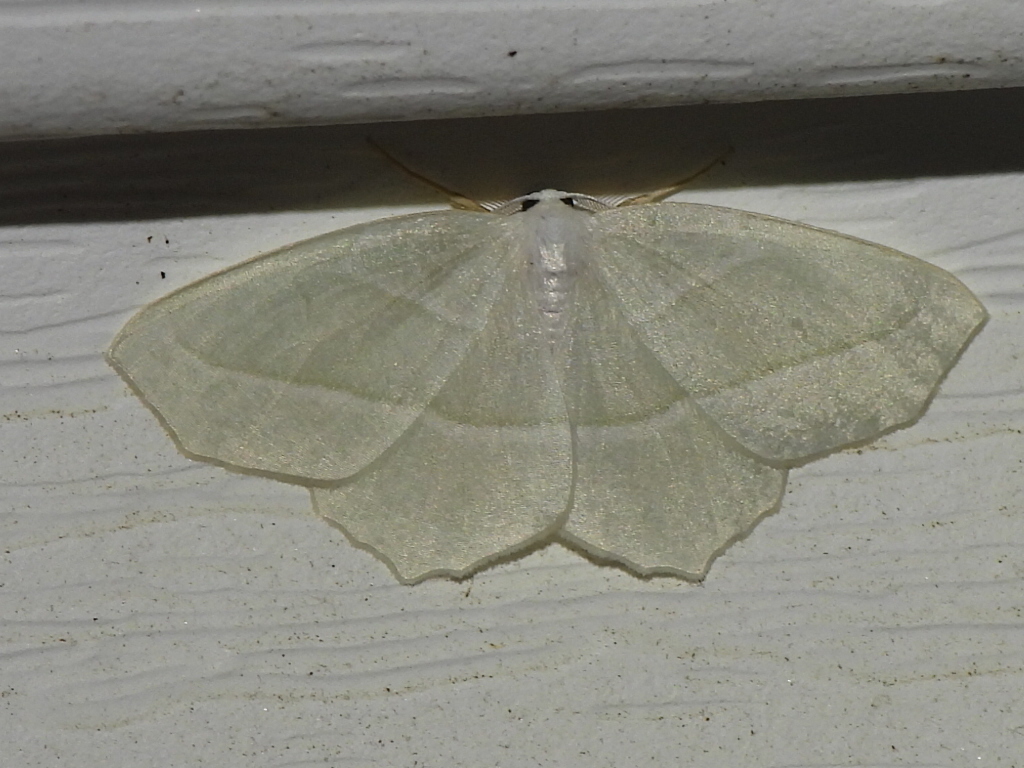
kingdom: Animalia
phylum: Arthropoda
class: Insecta
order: Lepidoptera
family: Geometridae
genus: Campaea
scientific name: Campaea perlata
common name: Fringed looper
